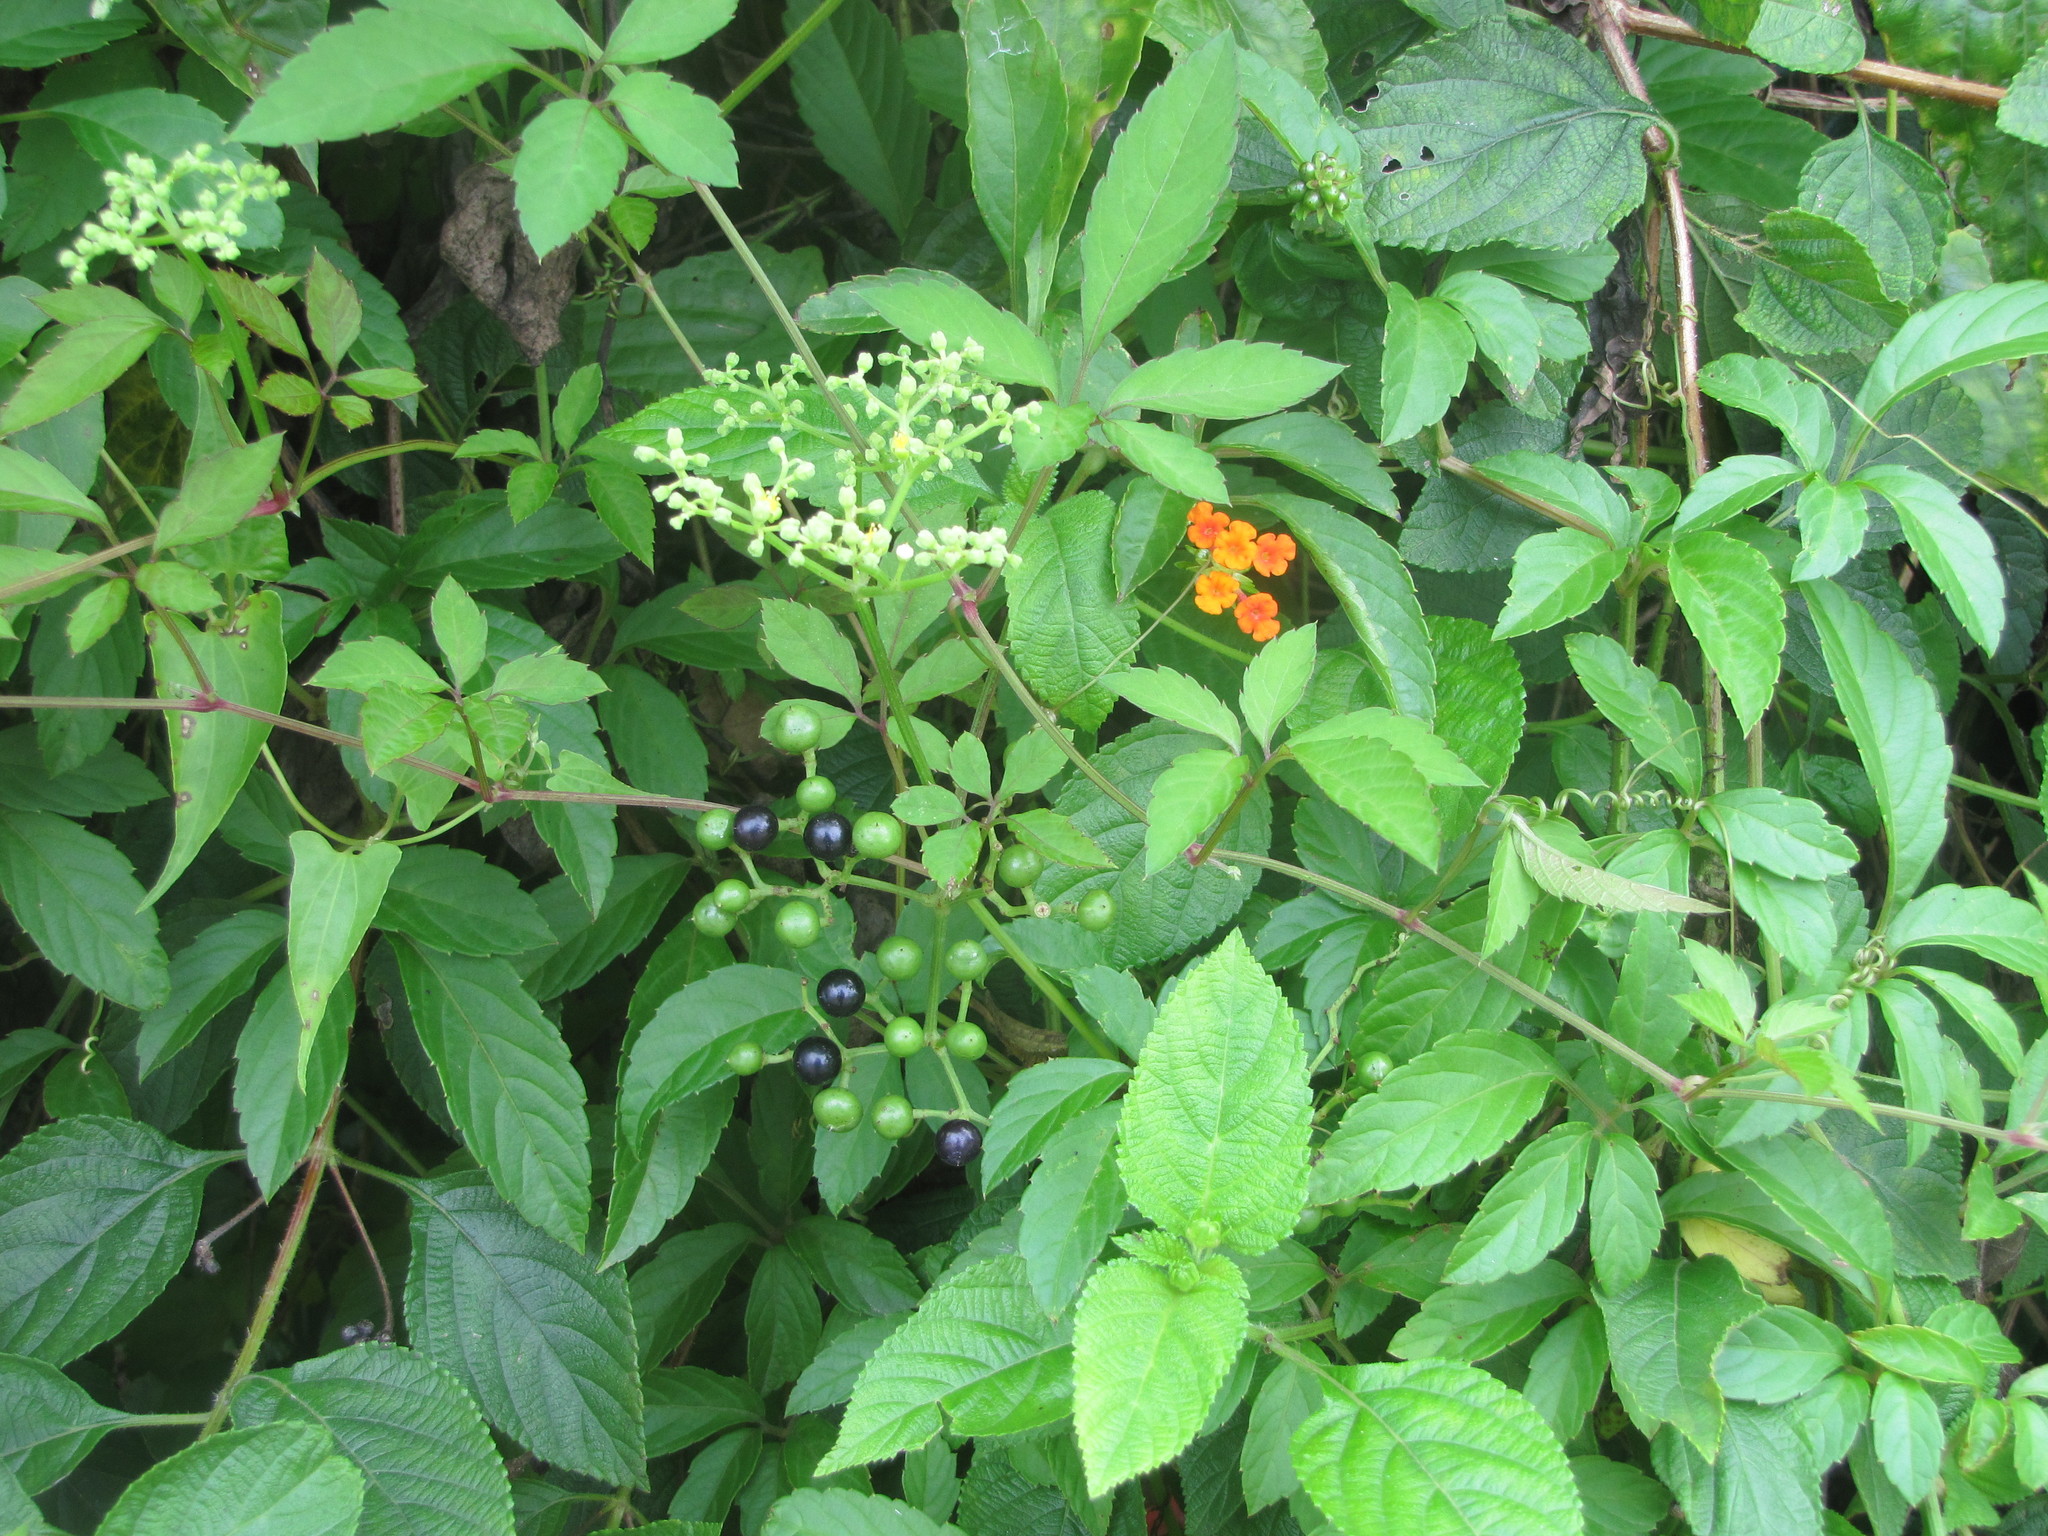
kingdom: Plantae
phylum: Tracheophyta
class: Magnoliopsida
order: Vitales
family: Vitaceae
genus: Causonis
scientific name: Causonis japonica
